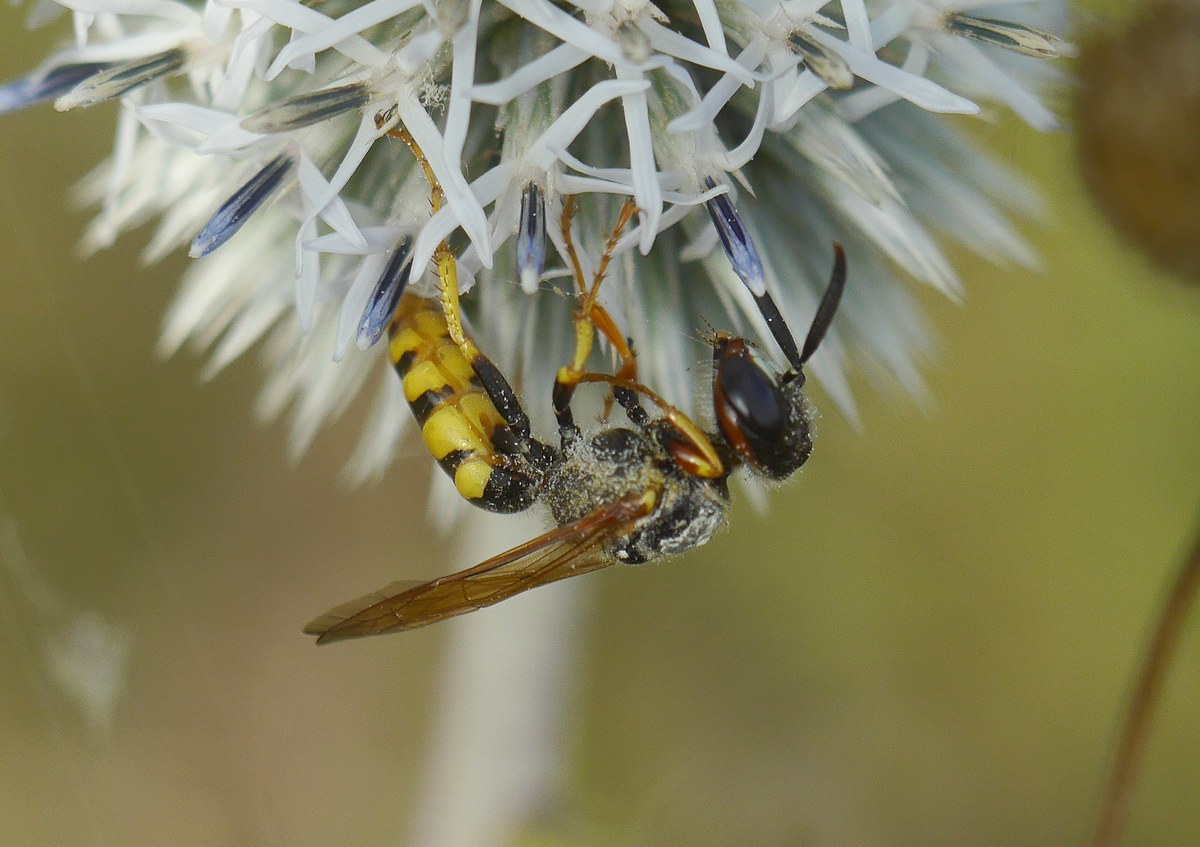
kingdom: Animalia
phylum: Arthropoda
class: Insecta
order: Hymenoptera
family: Crabronidae
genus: Philanthus
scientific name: Philanthus triangulum
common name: Bee wolf
